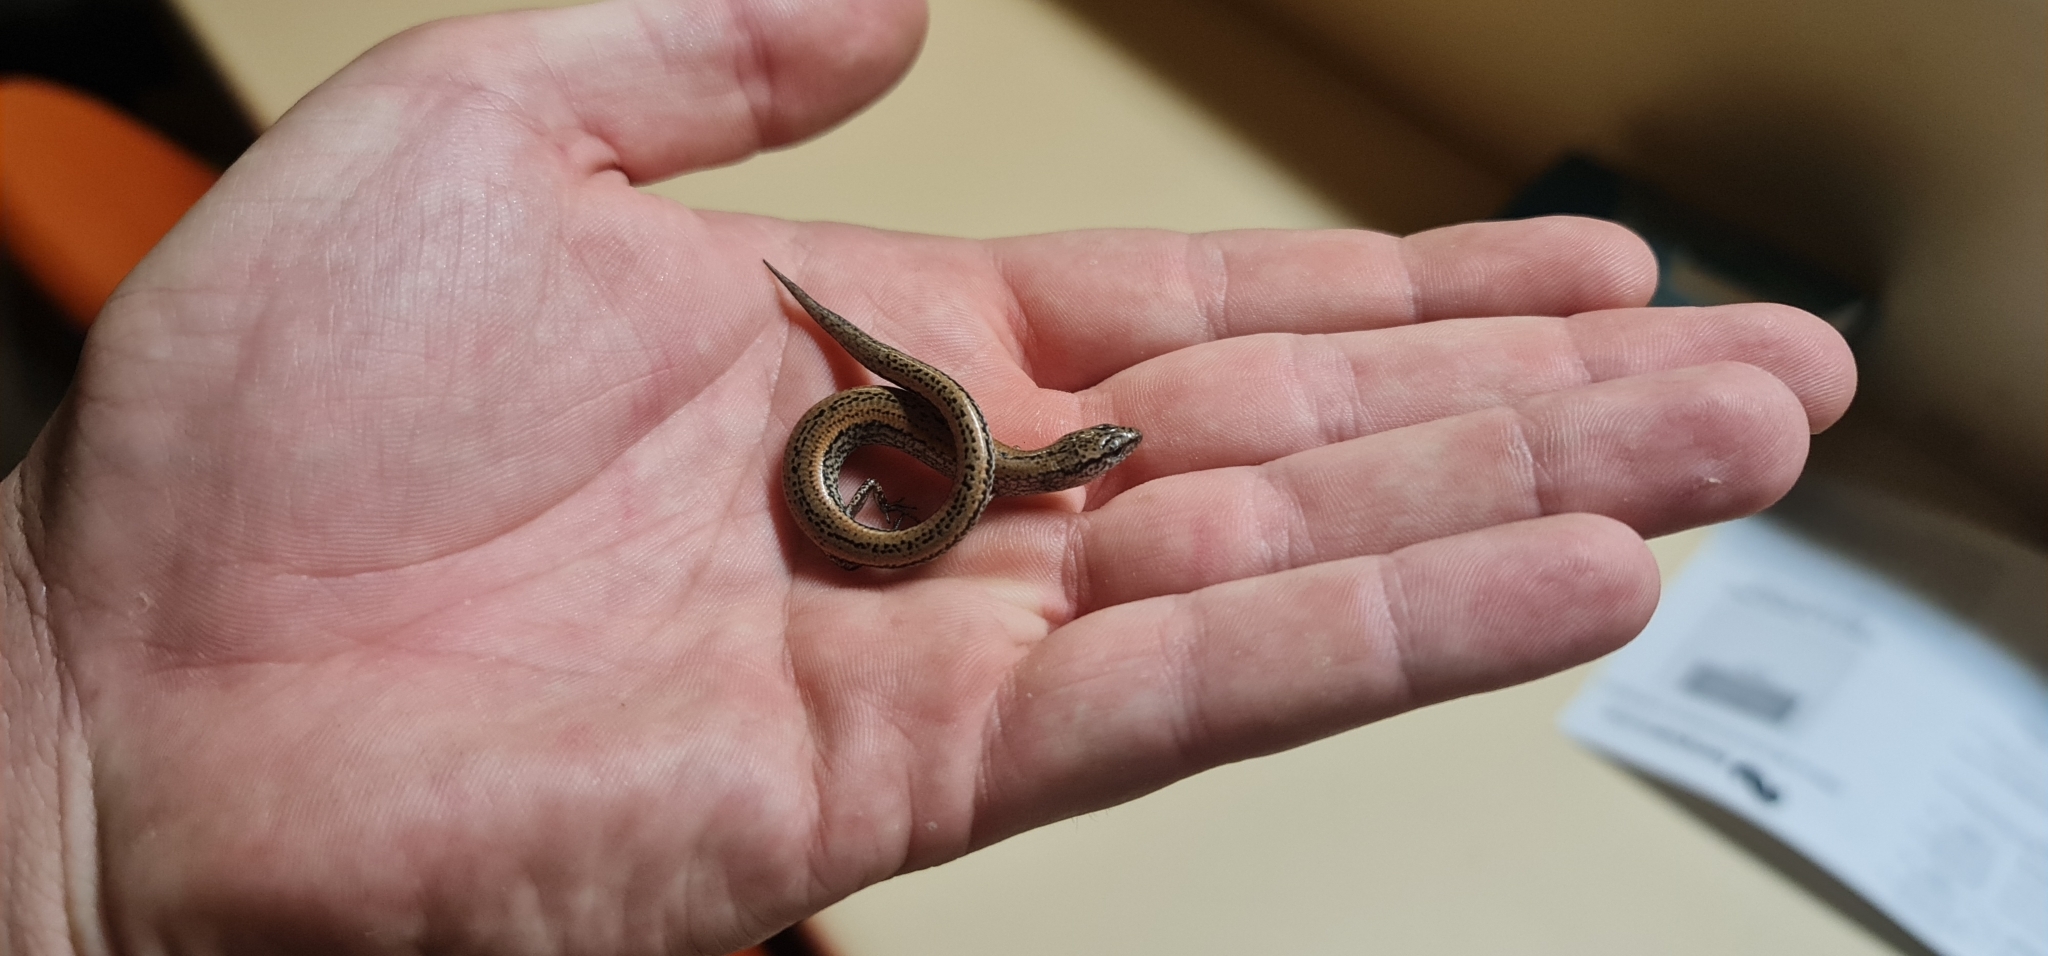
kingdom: Animalia
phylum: Chordata
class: Squamata
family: Scincidae
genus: Hemiergis
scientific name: Hemiergis peronii
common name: Lowlands earless skink
